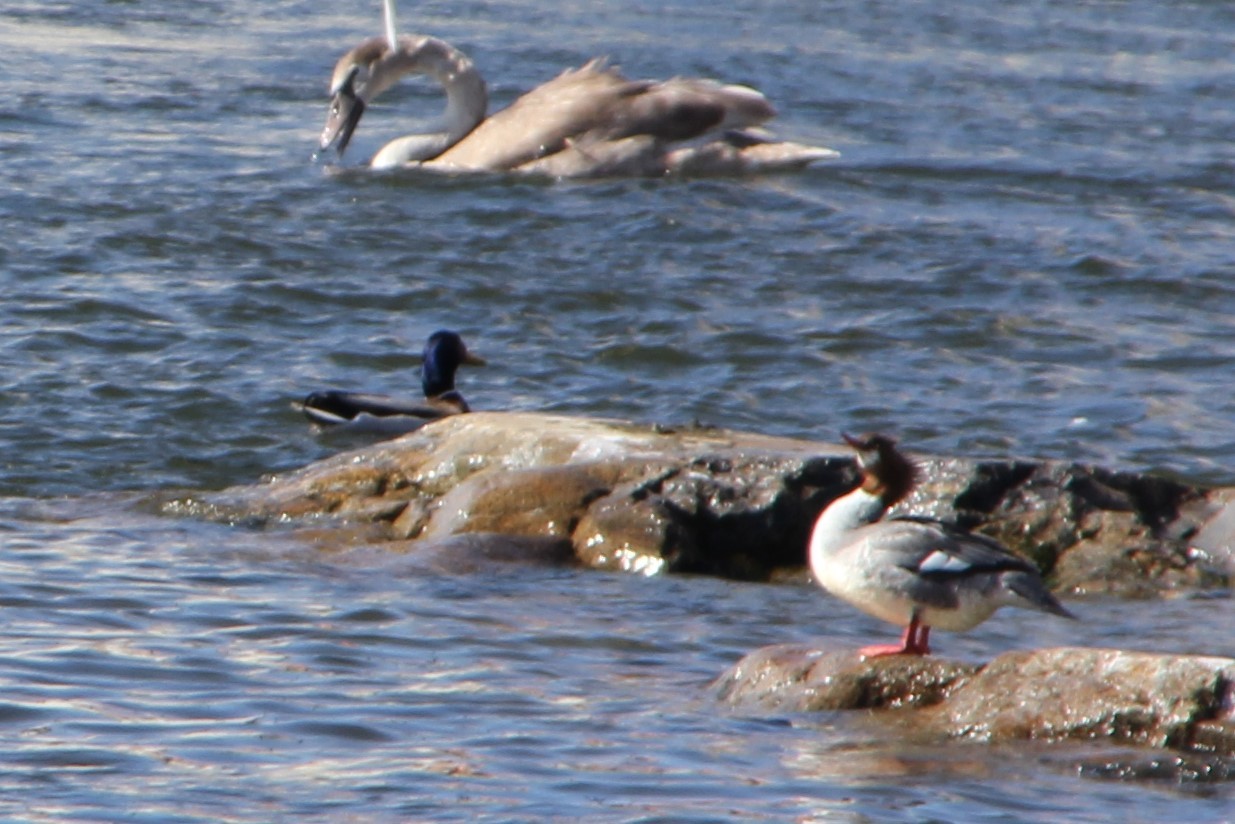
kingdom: Animalia
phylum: Chordata
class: Aves
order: Anseriformes
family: Anatidae
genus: Mergus
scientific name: Mergus merganser
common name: Common merganser
